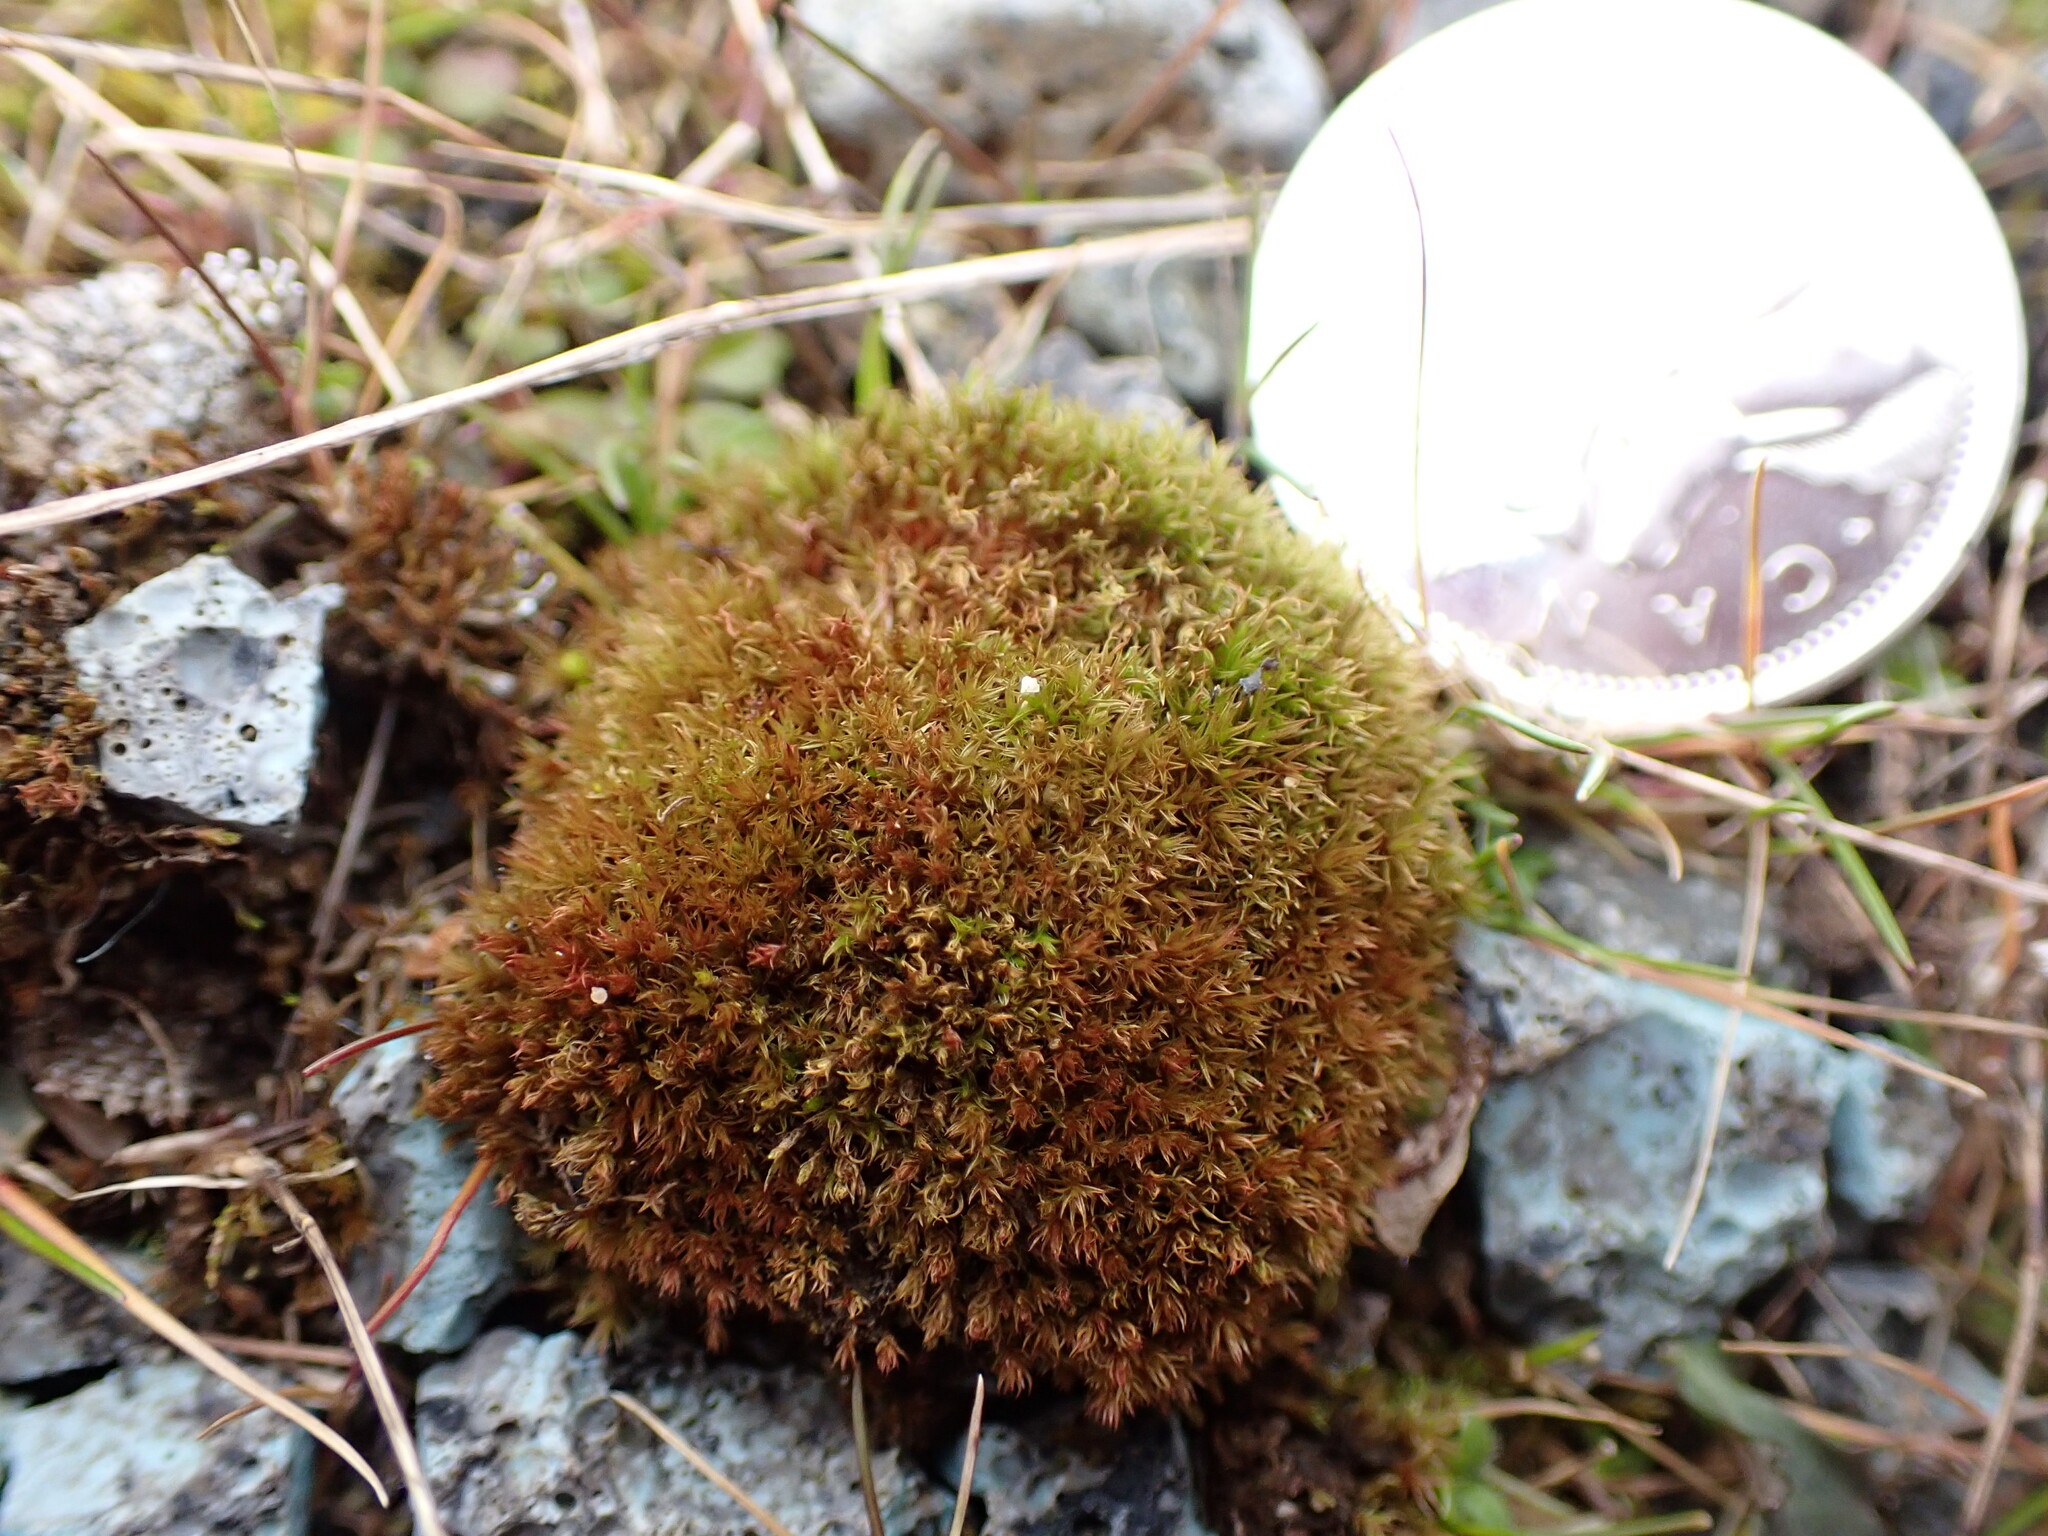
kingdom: Plantae
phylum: Bryophyta
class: Bryopsida
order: Dicranales
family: Ditrichaceae
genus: Ceratodon
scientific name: Ceratodon purpureus
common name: Redshank
